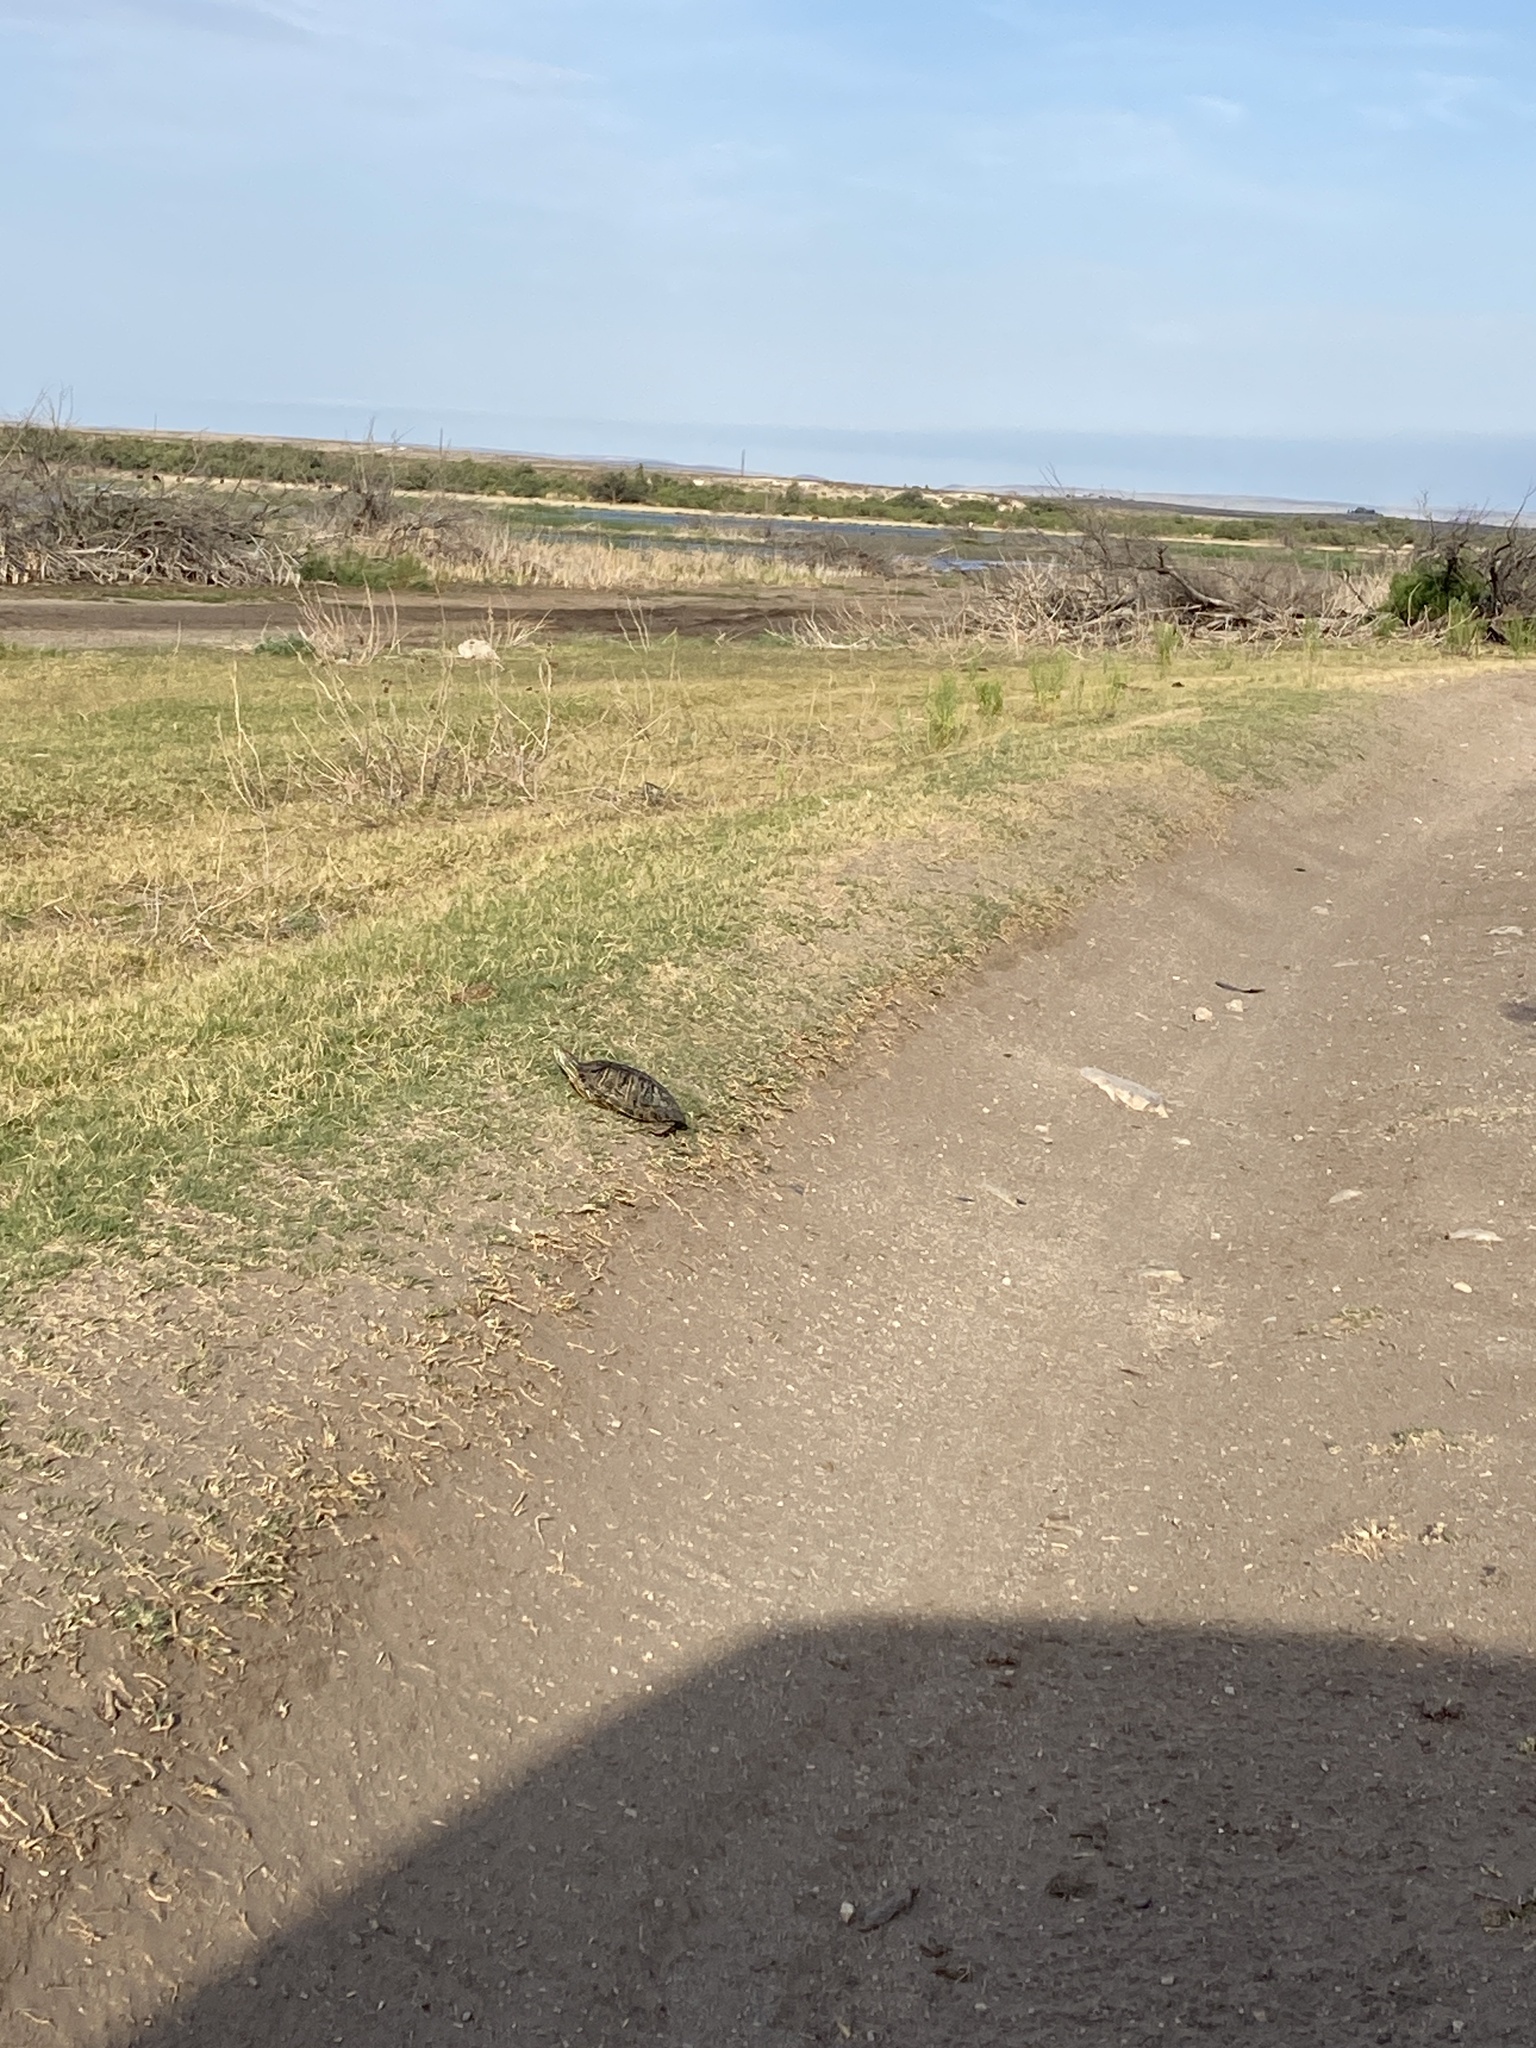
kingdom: Animalia
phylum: Chordata
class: Testudines
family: Emydidae
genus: Trachemys
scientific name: Trachemys scripta
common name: Slider
